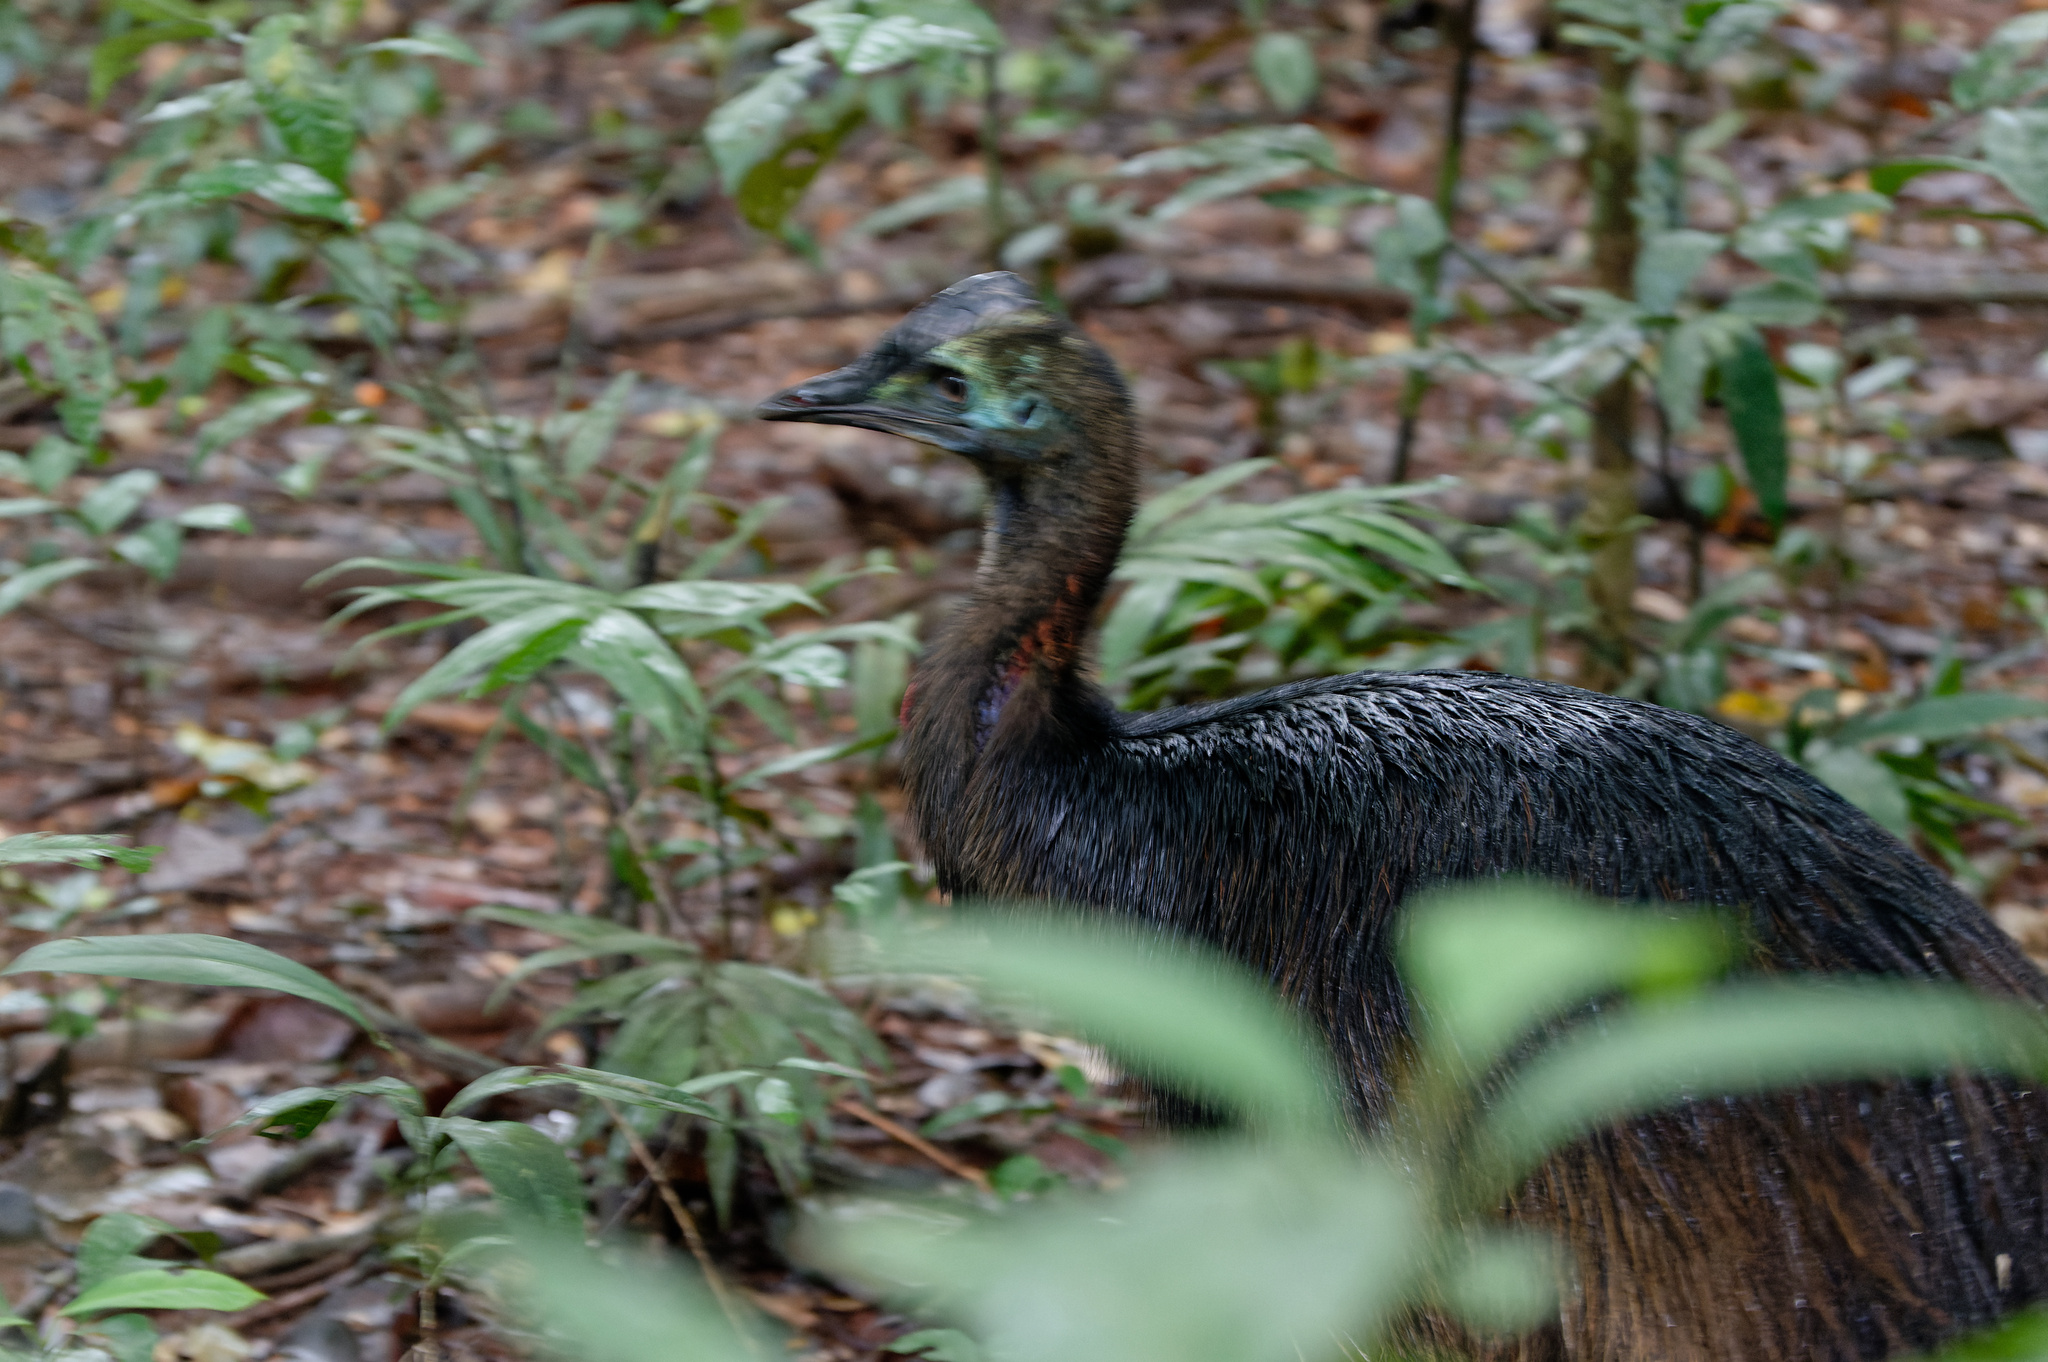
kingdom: Animalia
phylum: Chordata
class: Aves
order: Casuariiformes
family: Casuariidae
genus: Casuarius
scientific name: Casuarius casuarius
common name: Southern cassowary
